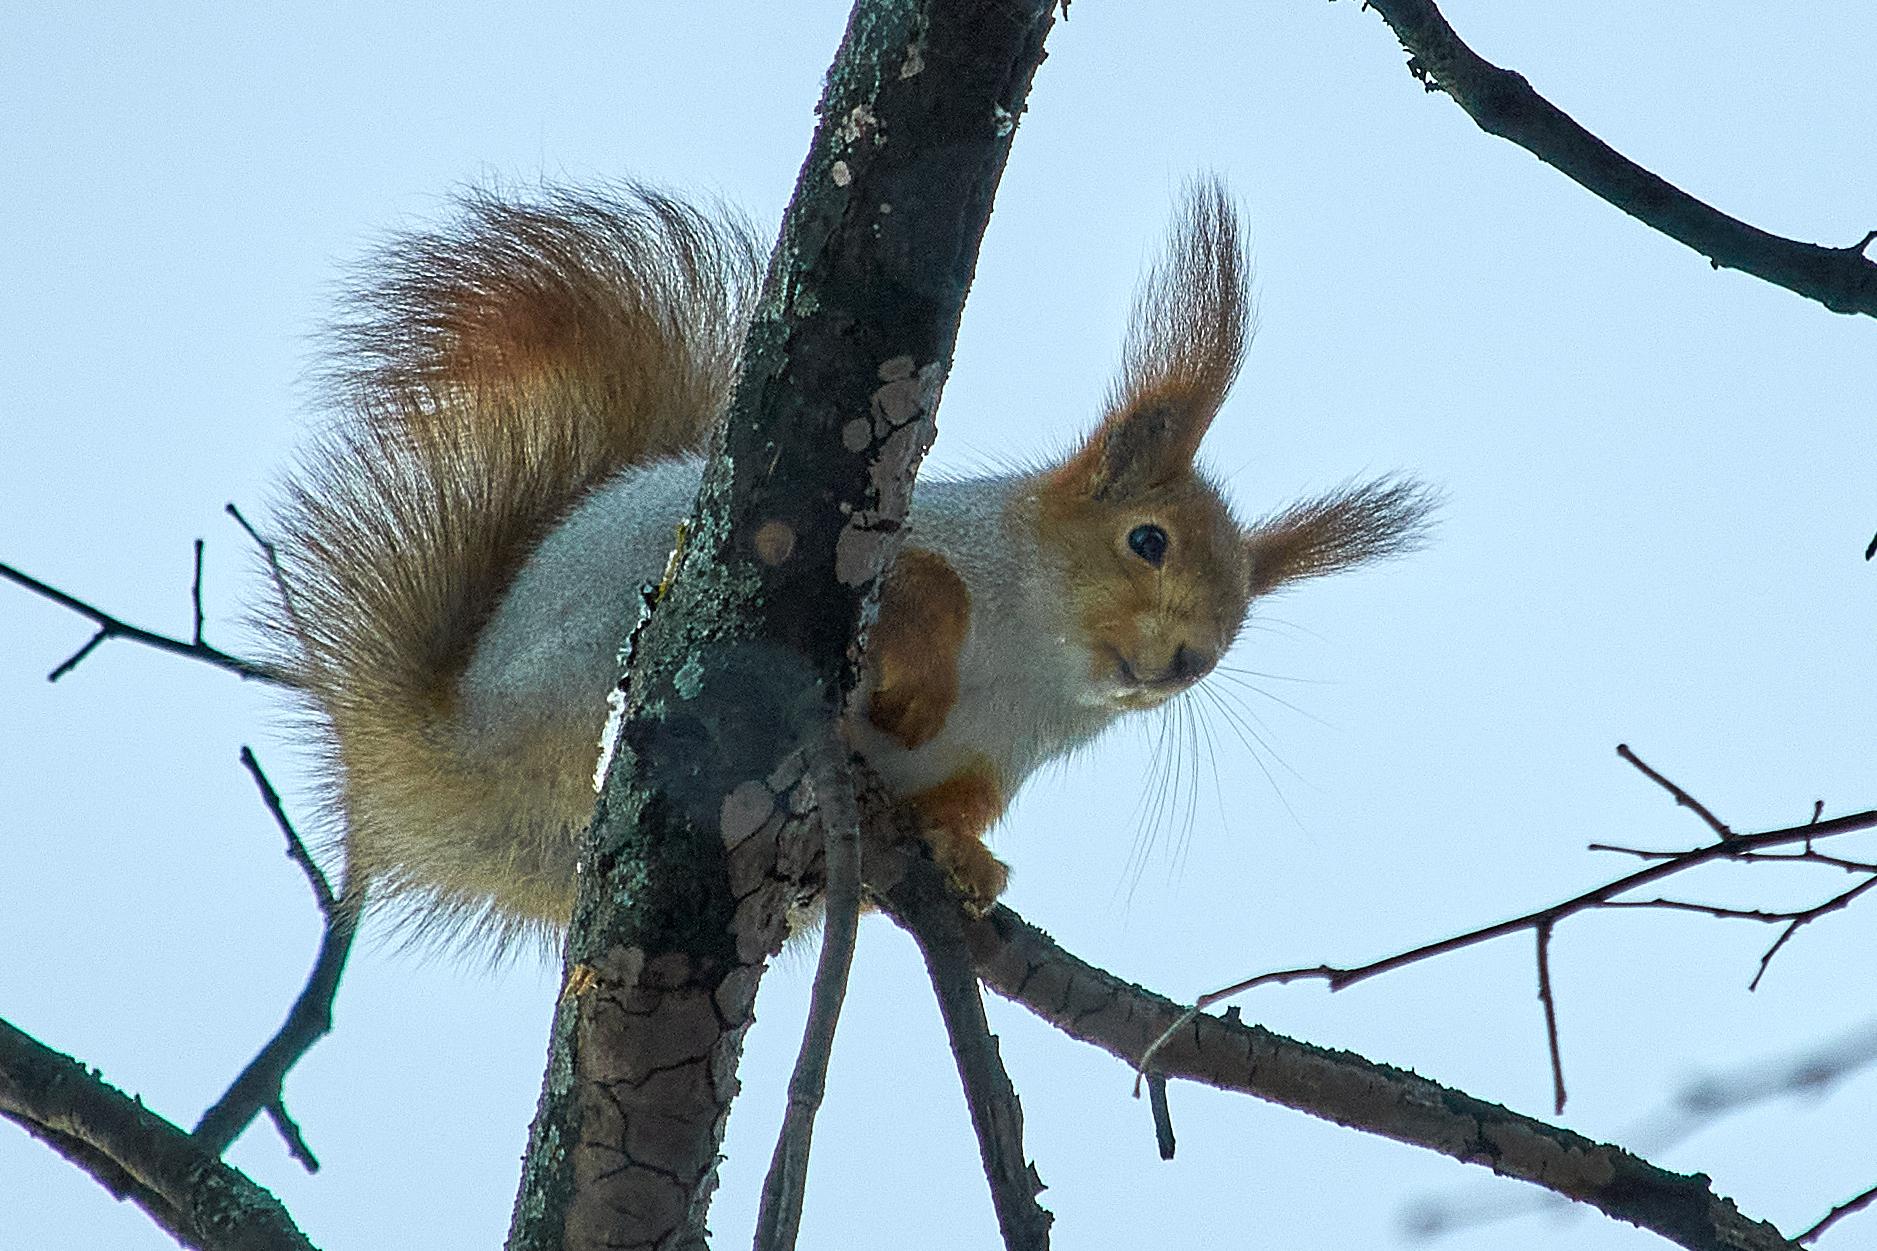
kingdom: Animalia
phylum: Chordata
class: Mammalia
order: Rodentia
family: Sciuridae
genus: Sciurus
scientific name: Sciurus vulgaris
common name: Eurasian red squirrel
